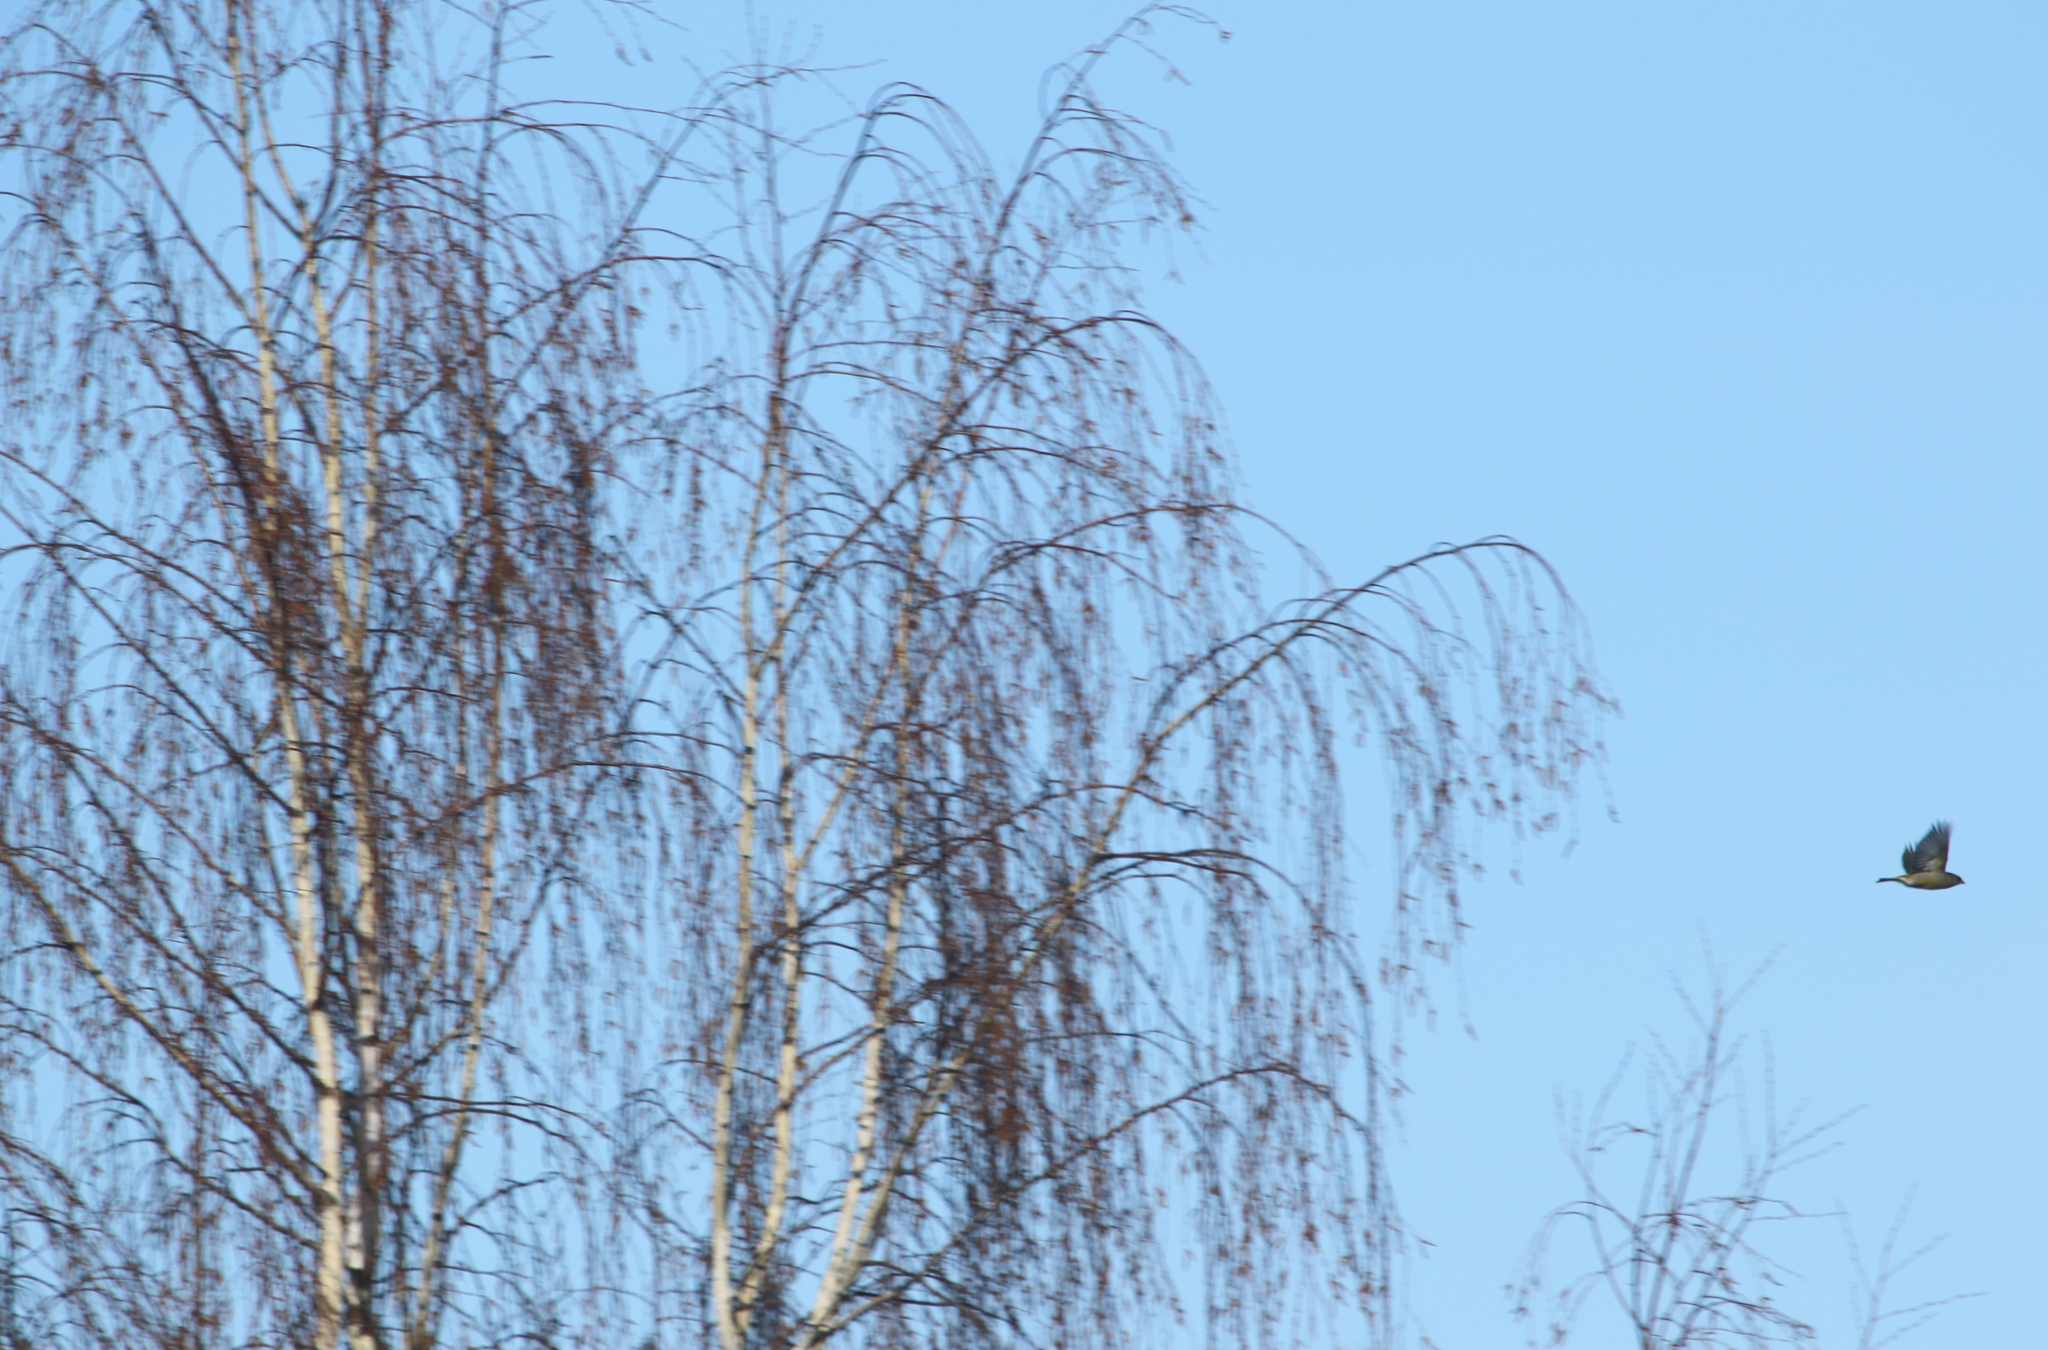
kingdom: Plantae
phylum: Tracheophyta
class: Liliopsida
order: Poales
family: Poaceae
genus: Chloris
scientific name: Chloris chloris
